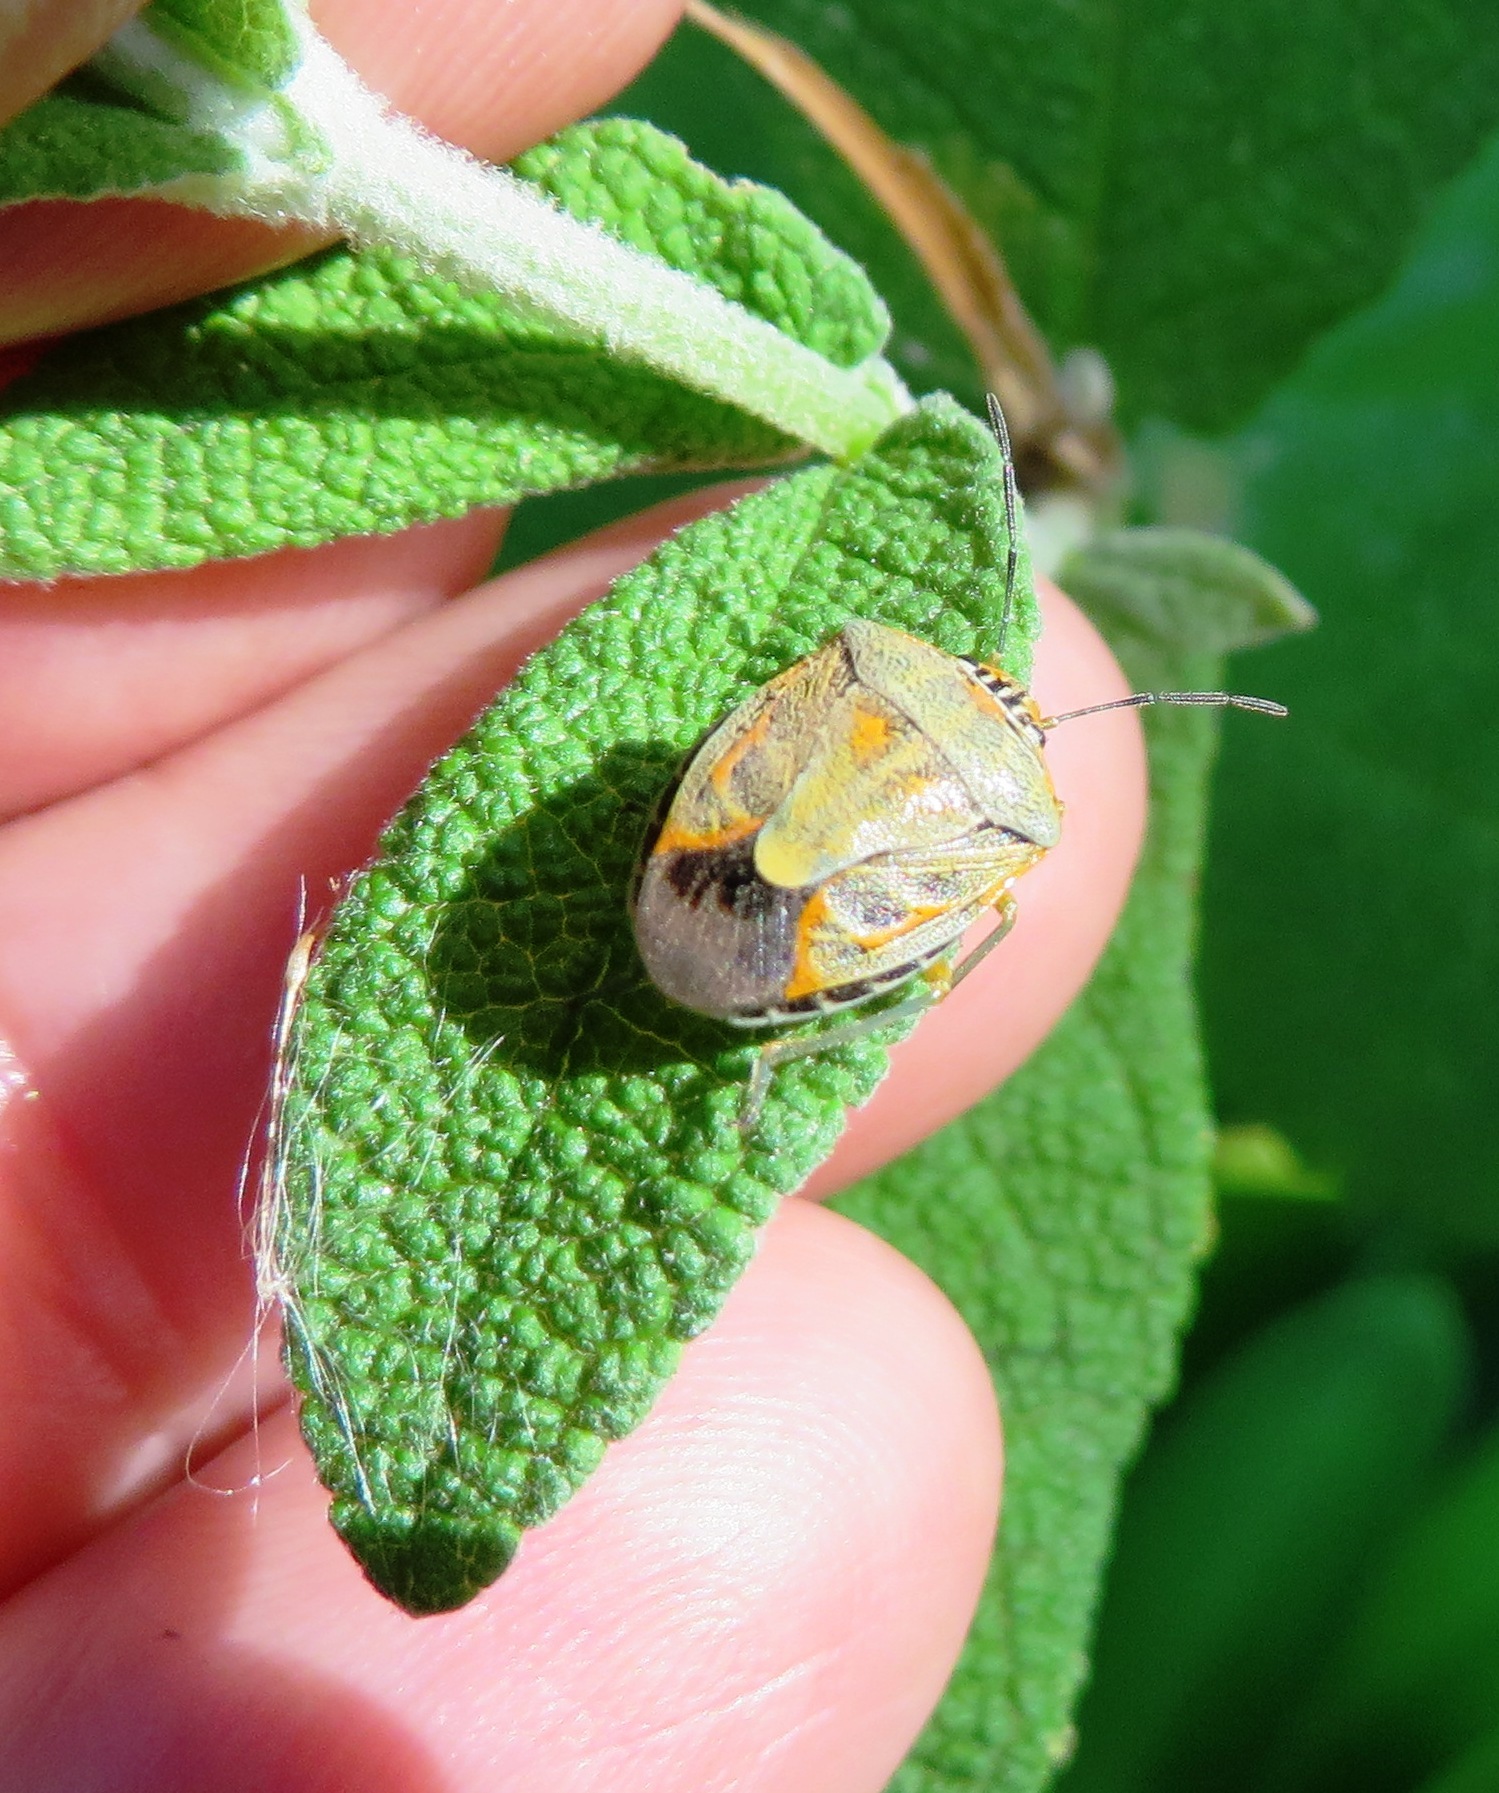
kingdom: Animalia
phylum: Arthropoda
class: Insecta
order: Hemiptera
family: Pentatomidae
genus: Antestiopsis
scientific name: Antestiopsis thunbergii
